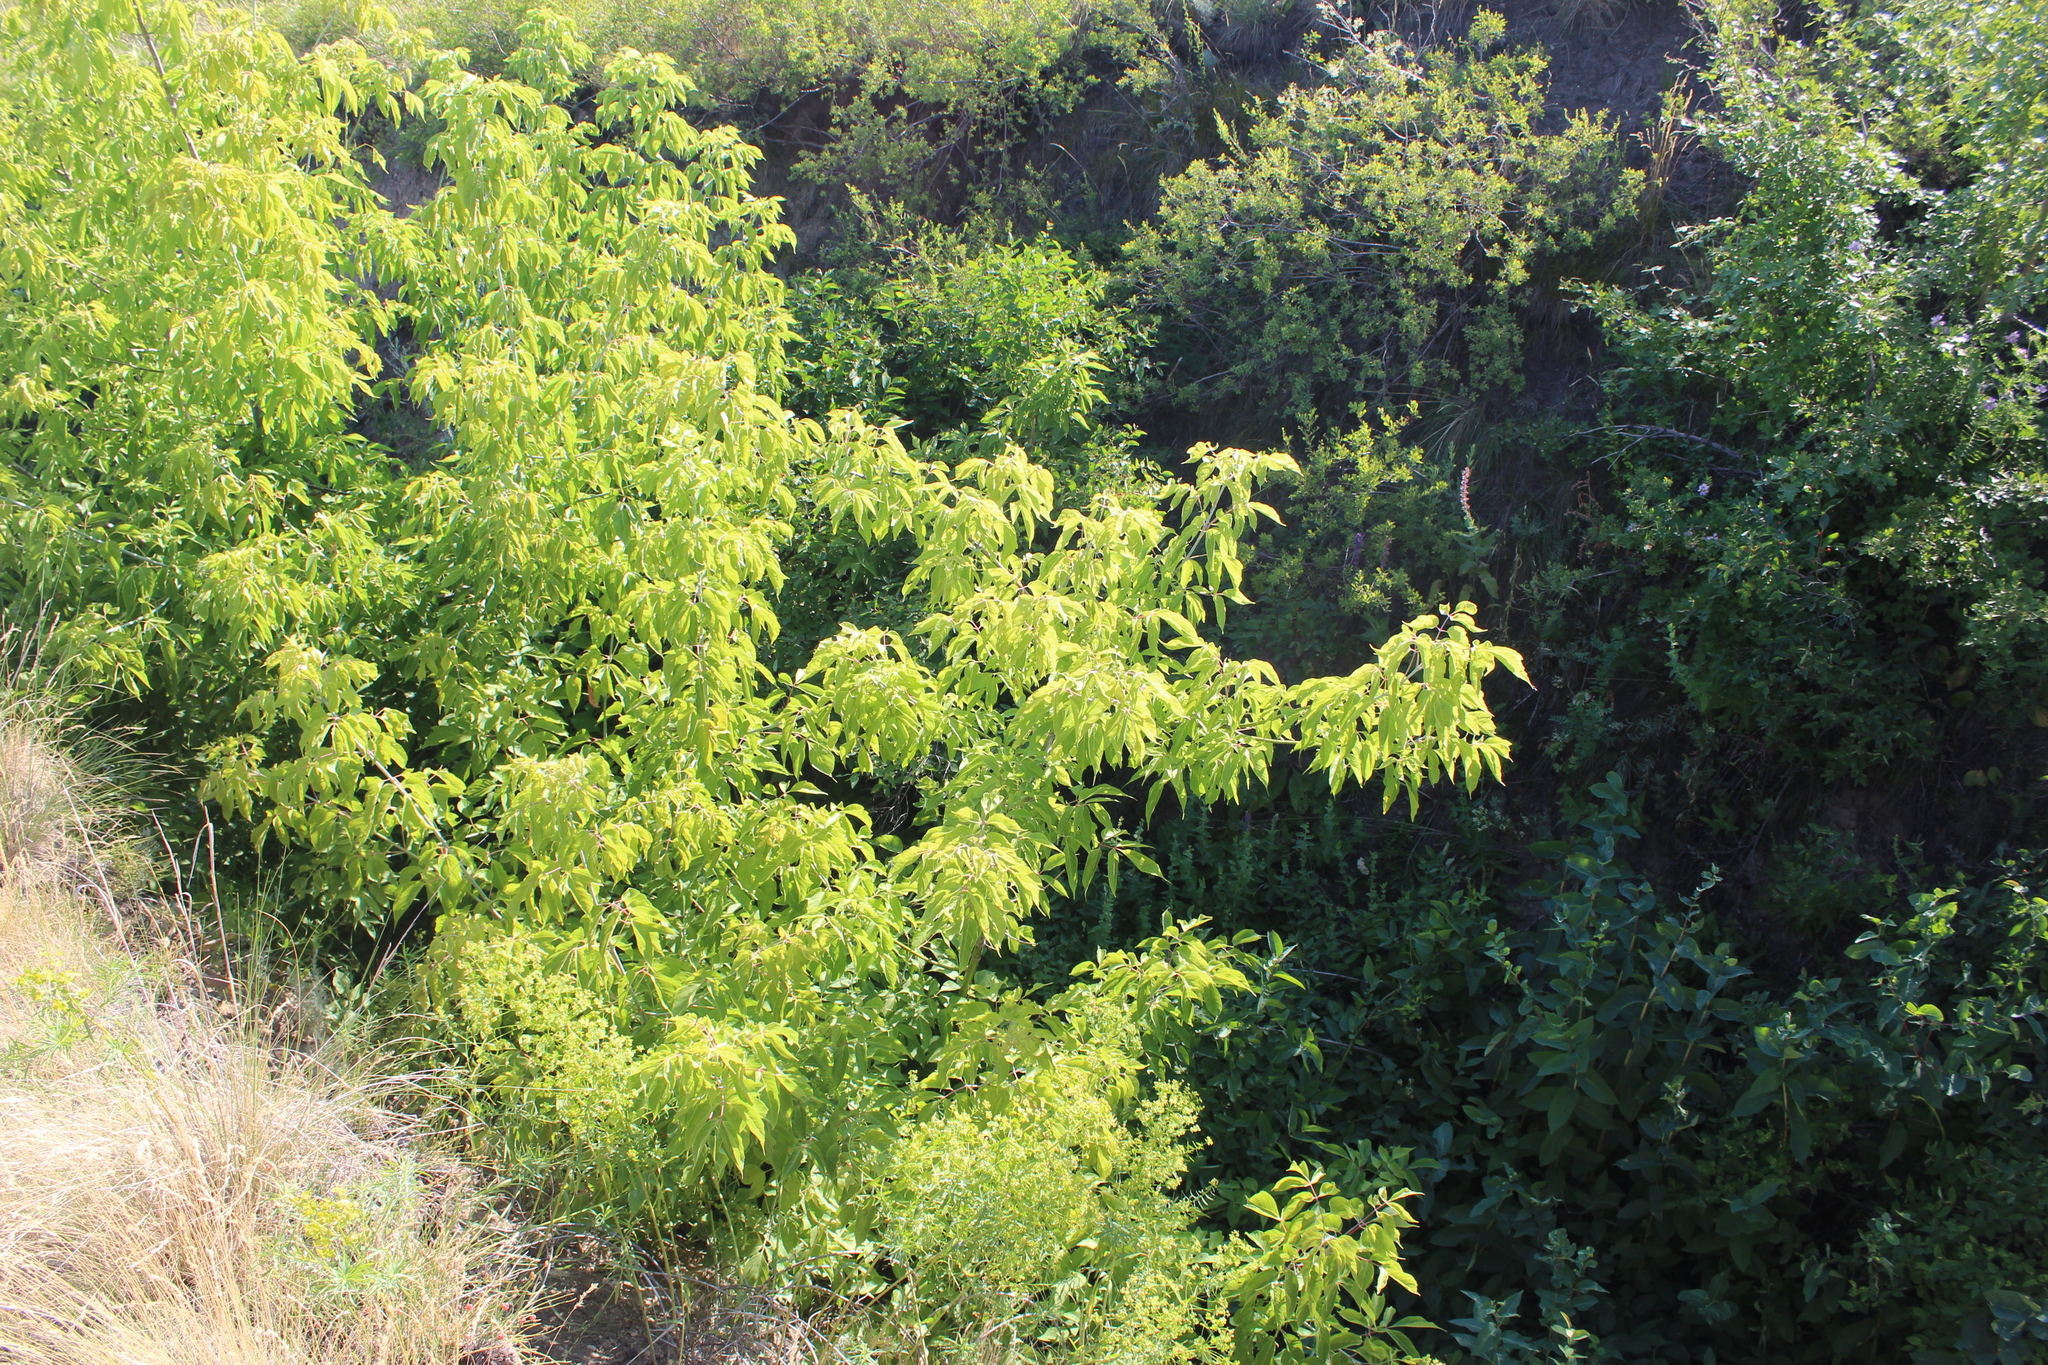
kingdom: Plantae
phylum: Tracheophyta
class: Magnoliopsida
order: Sapindales
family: Sapindaceae
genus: Acer
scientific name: Acer negundo
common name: Ashleaf maple
